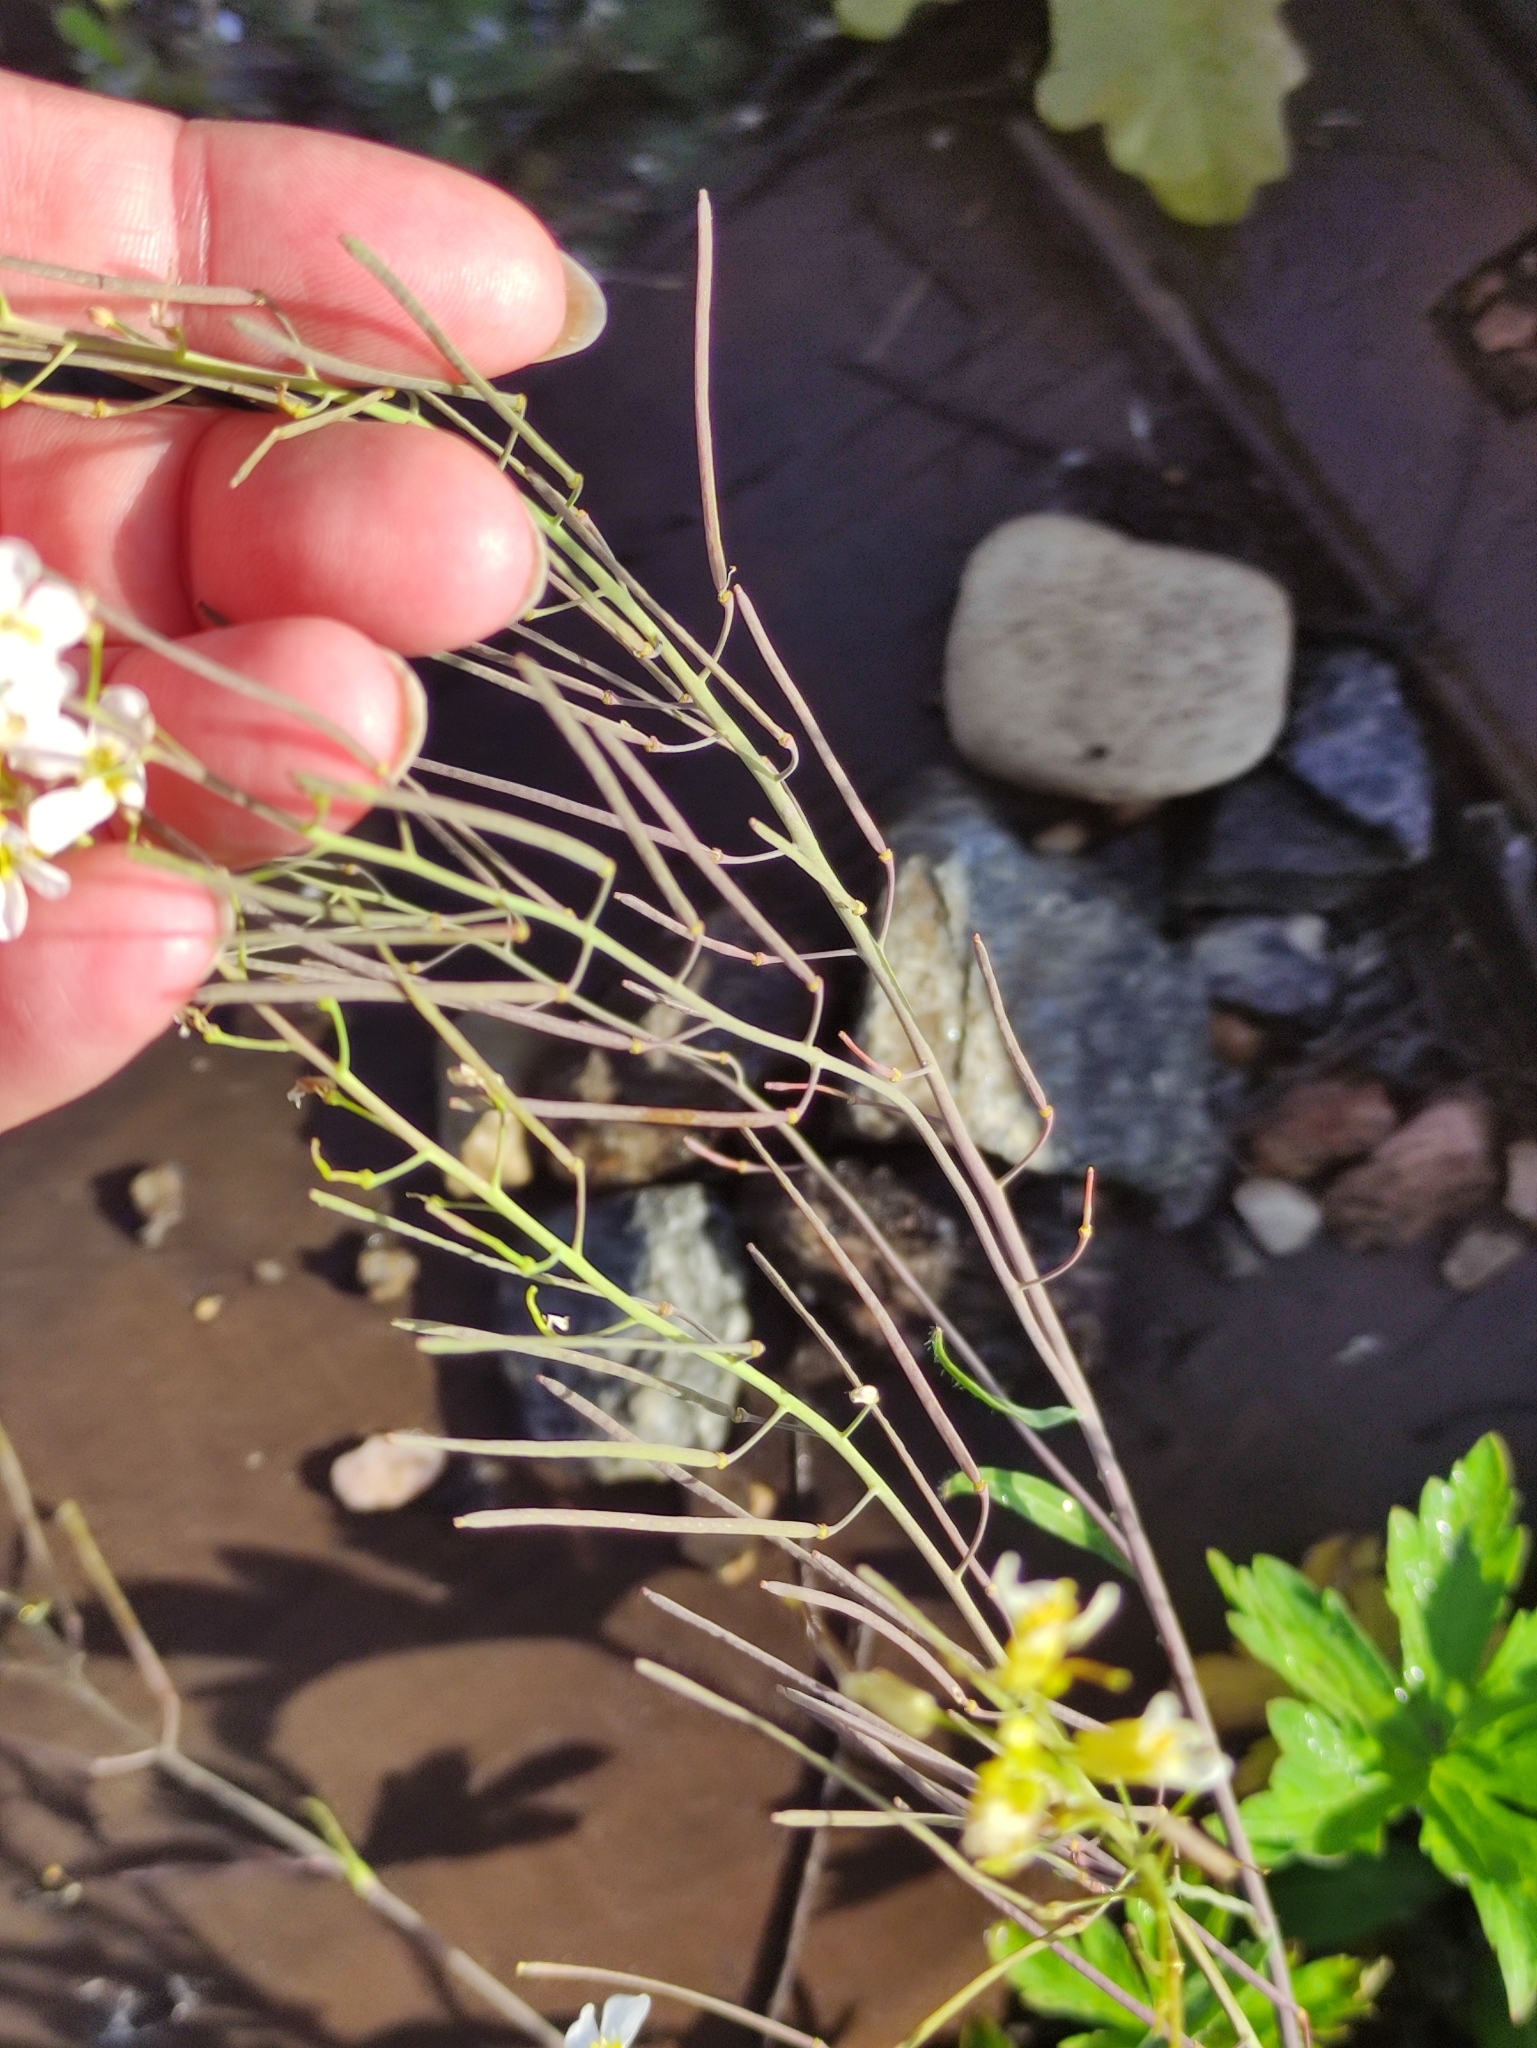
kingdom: Plantae
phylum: Tracheophyta
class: Magnoliopsida
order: Brassicales
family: Brassicaceae
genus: Arabidopsis
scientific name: Arabidopsis arenosa
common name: Sand rock-cress
